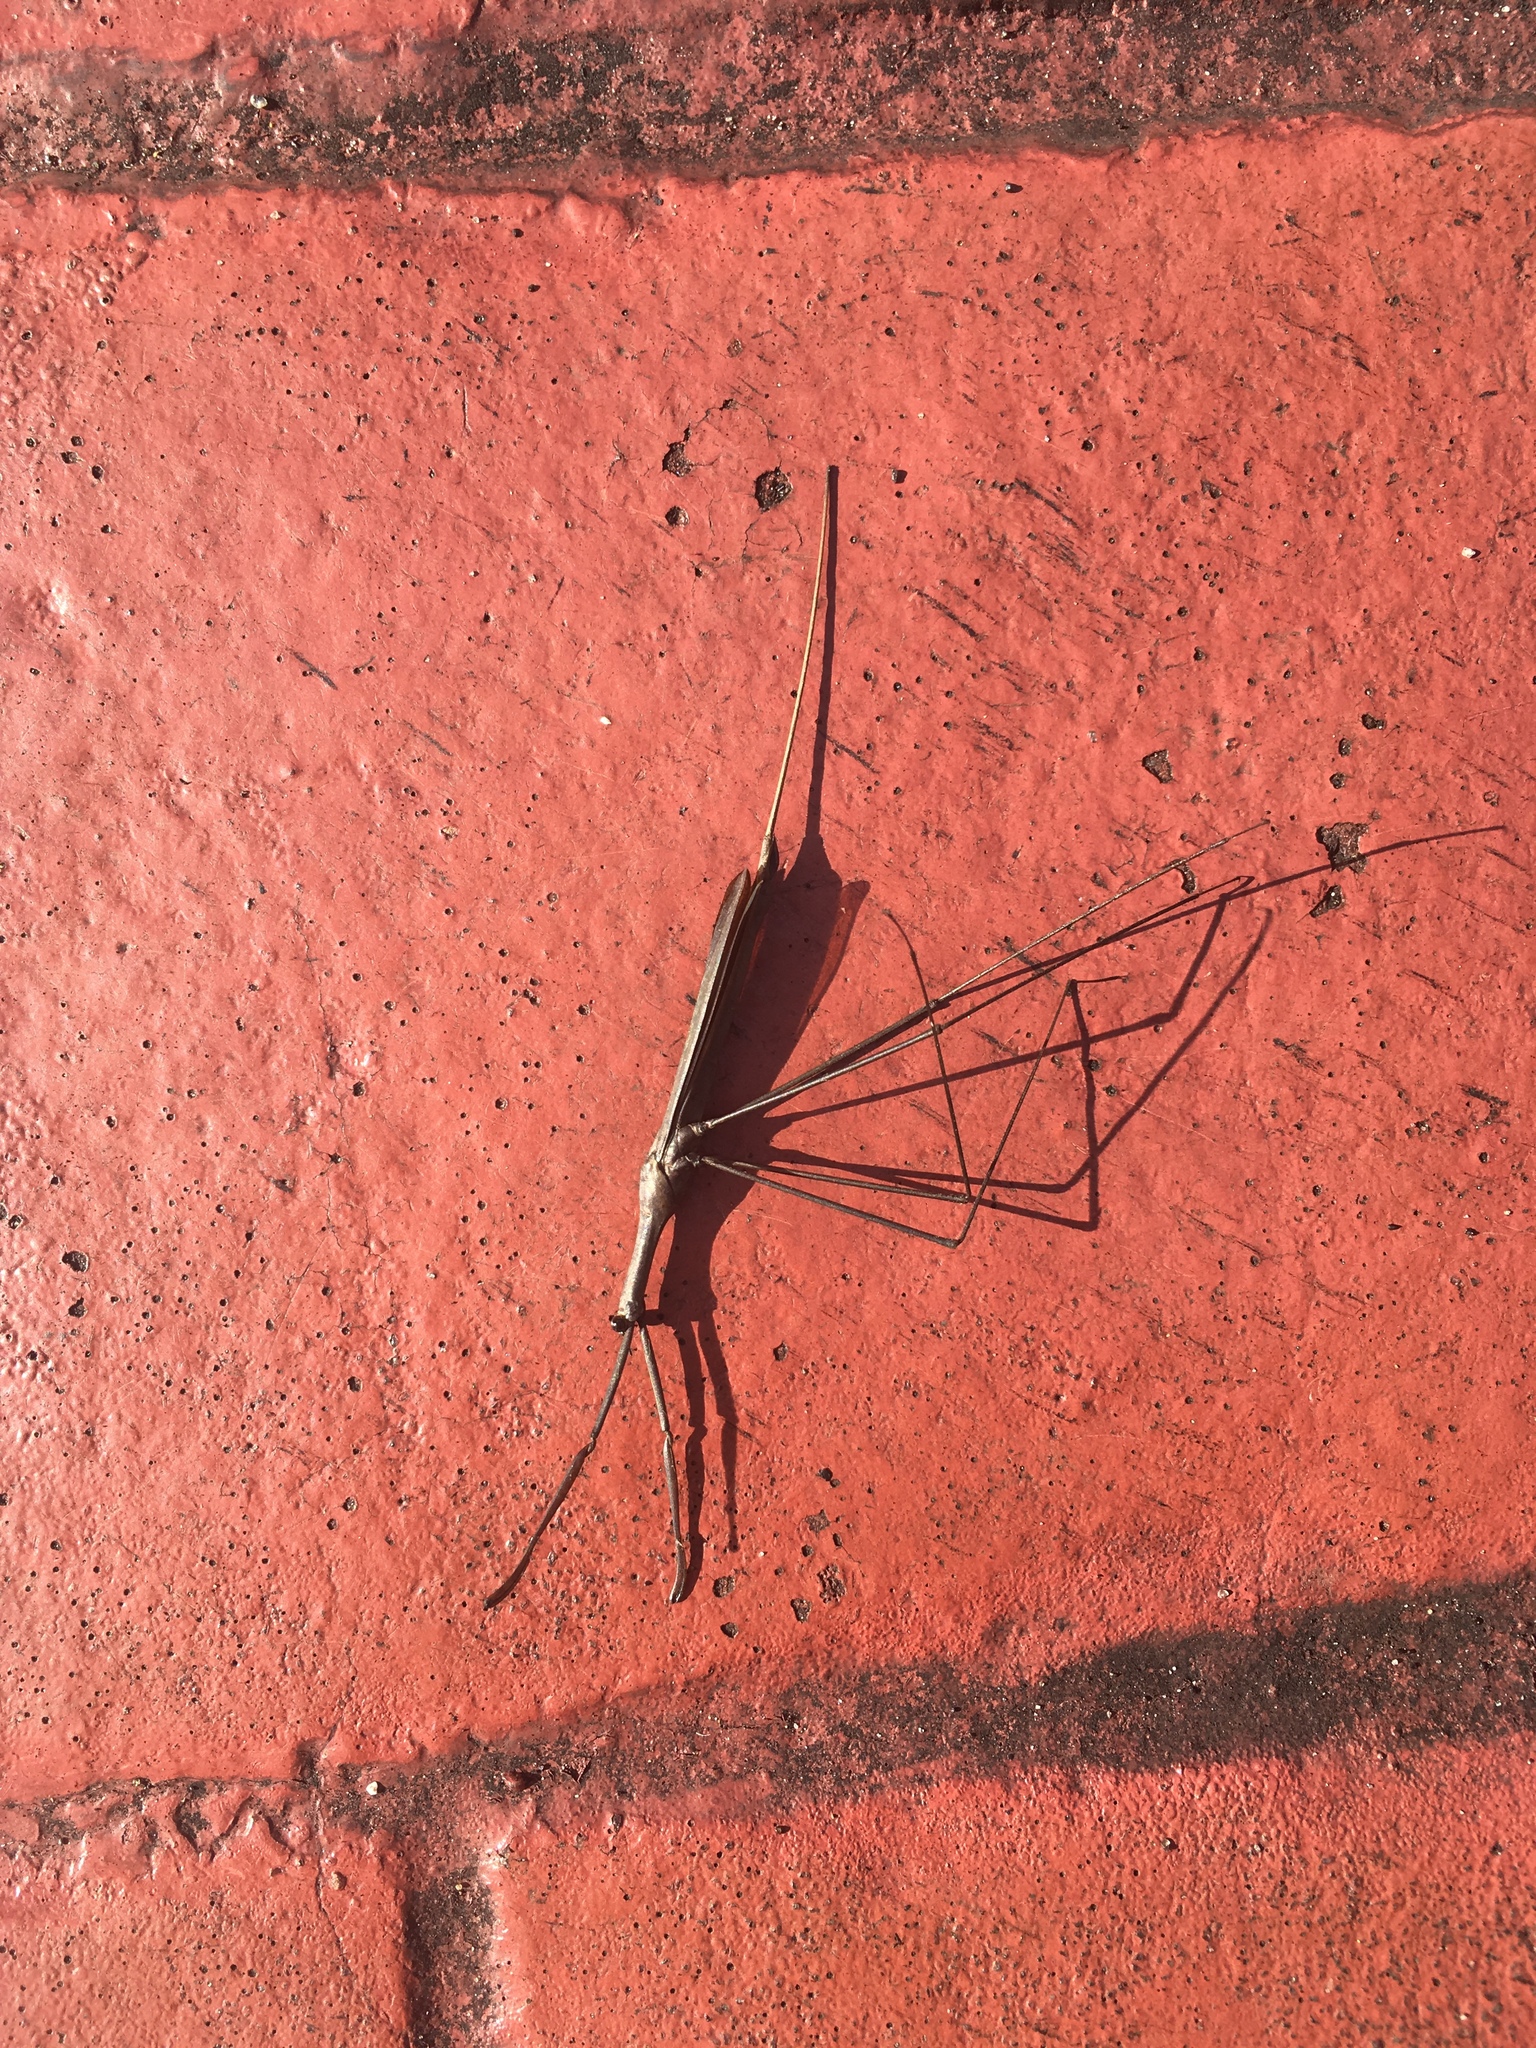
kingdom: Animalia
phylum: Arthropoda
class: Insecta
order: Hemiptera
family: Nepidae
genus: Ranatra
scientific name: Ranatra buenoi
